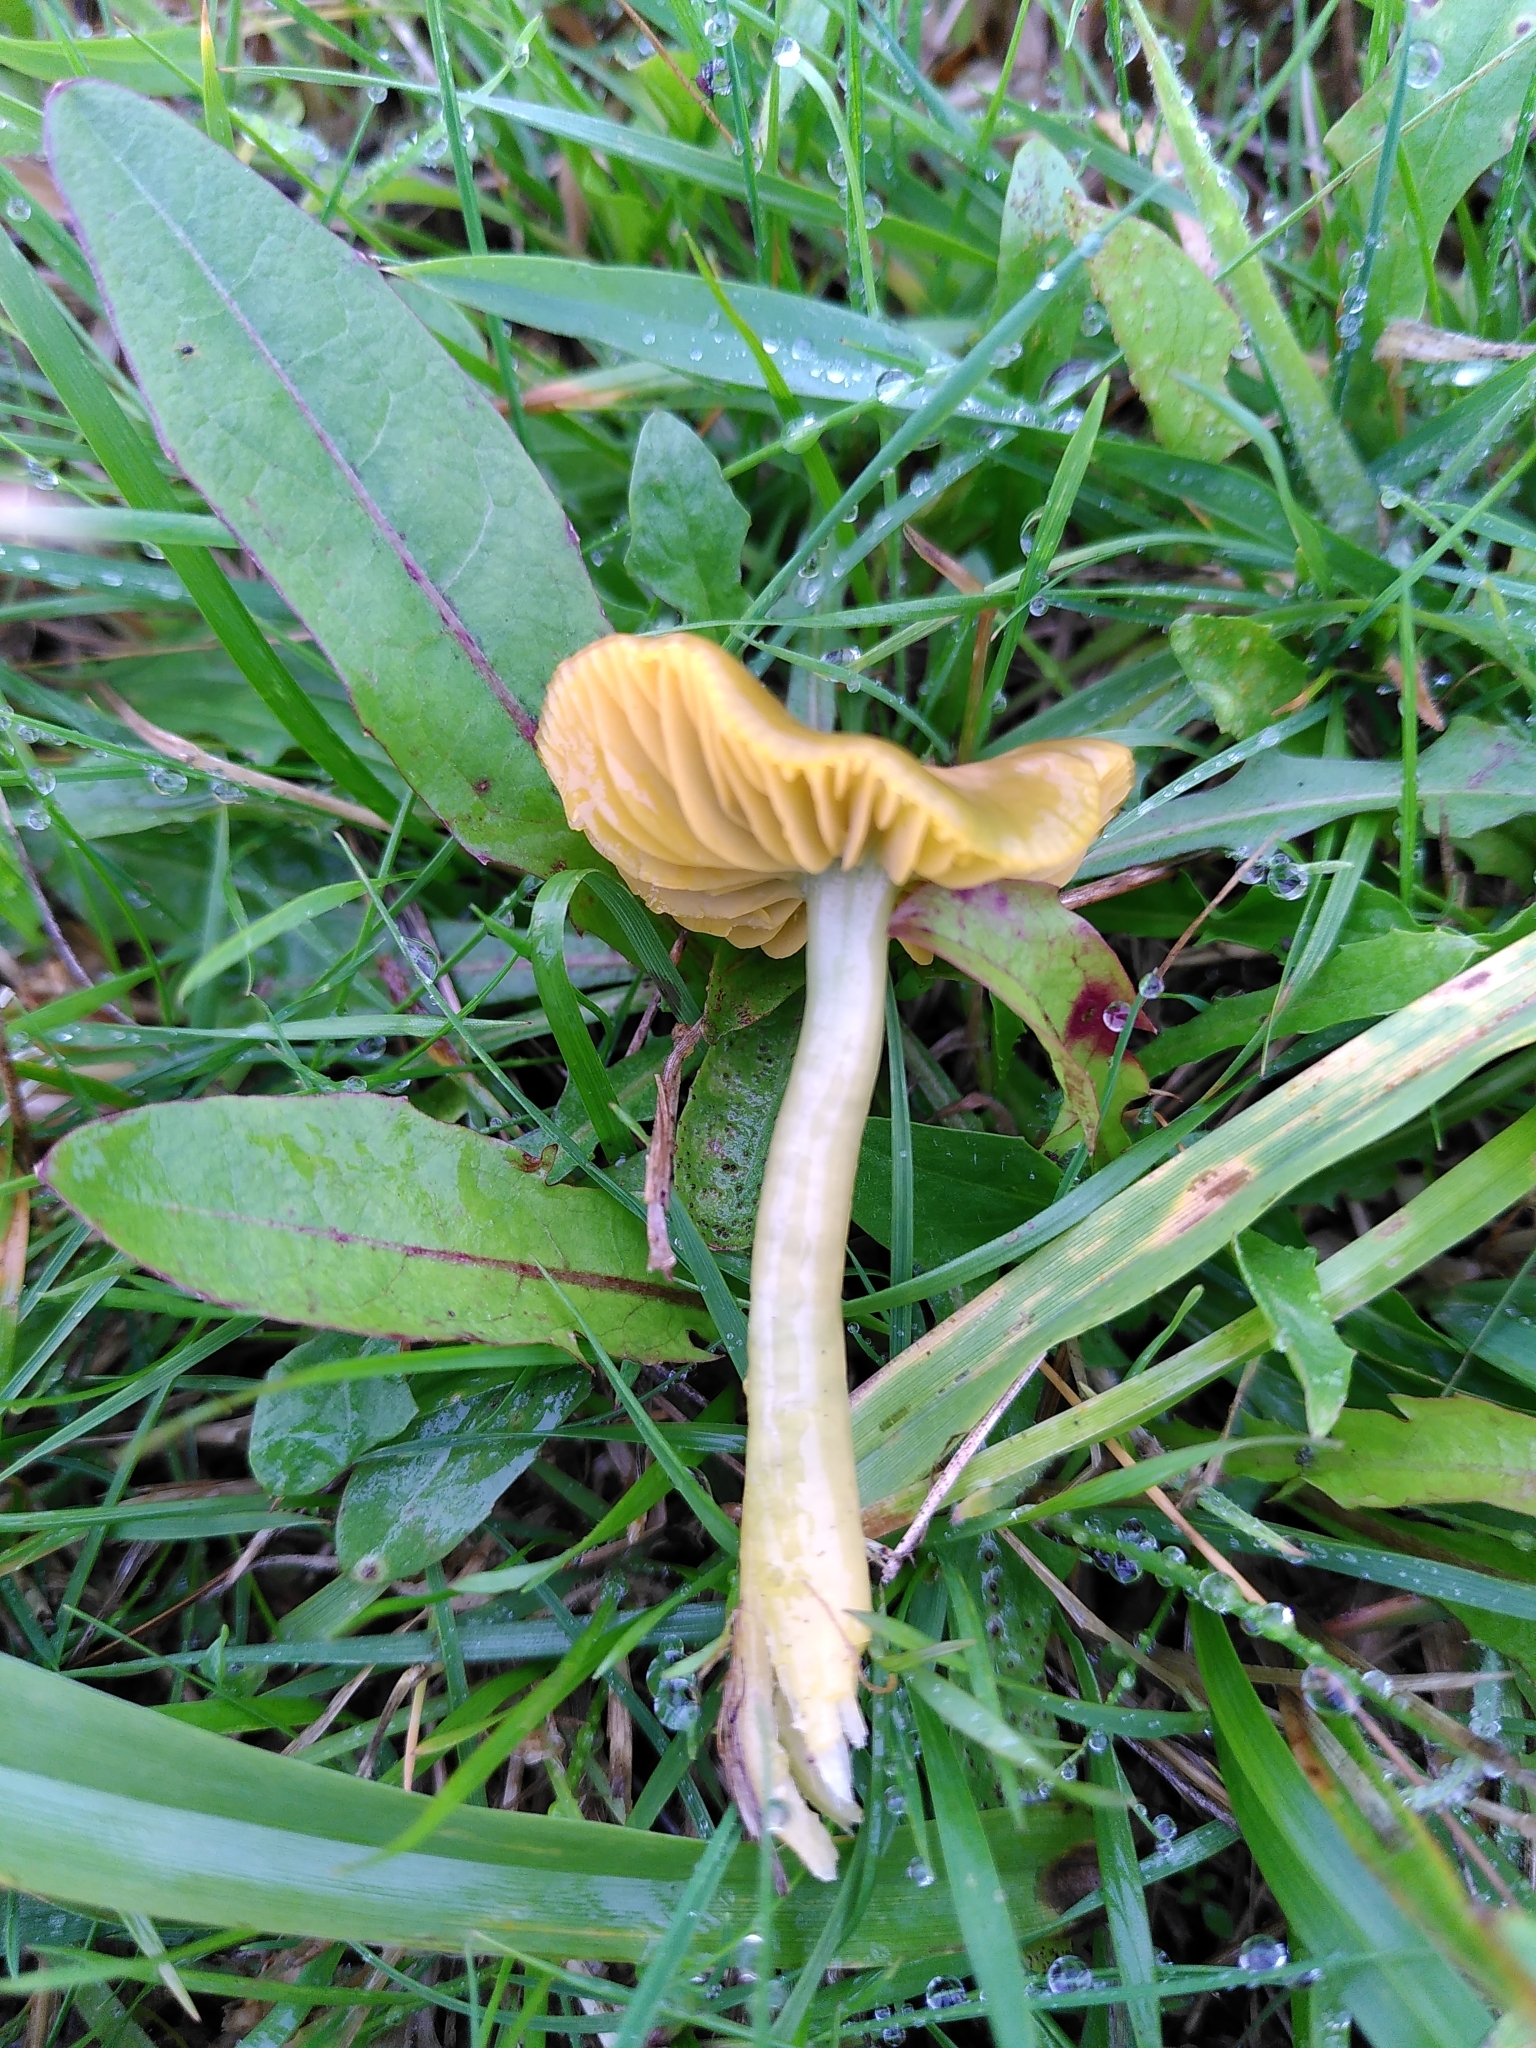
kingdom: Fungi
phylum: Basidiomycota
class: Agaricomycetes
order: Agaricales
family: Hygrophoraceae
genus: Gliophorus
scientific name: Gliophorus psittacinus
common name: Parrot wax-cap
